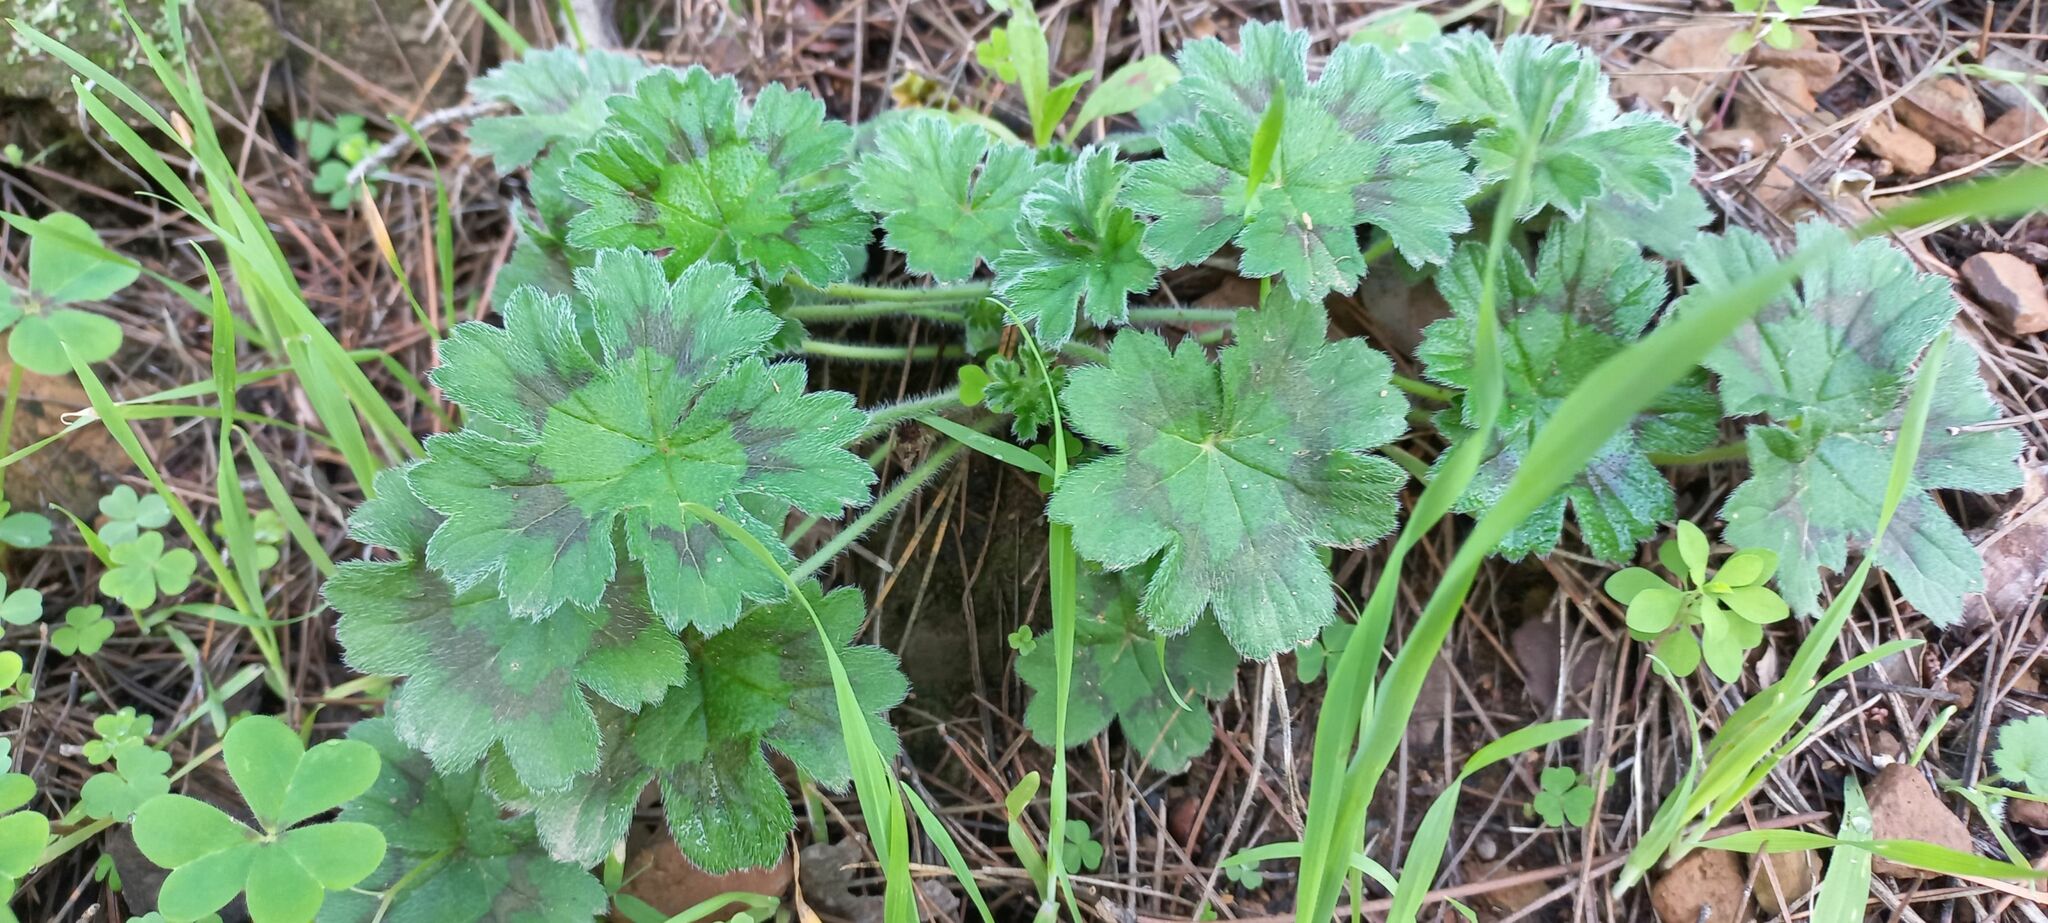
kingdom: Plantae
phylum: Tracheophyta
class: Magnoliopsida
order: Geraniales
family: Geraniaceae
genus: Pelargonium
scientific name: Pelargonium alchemilloides
